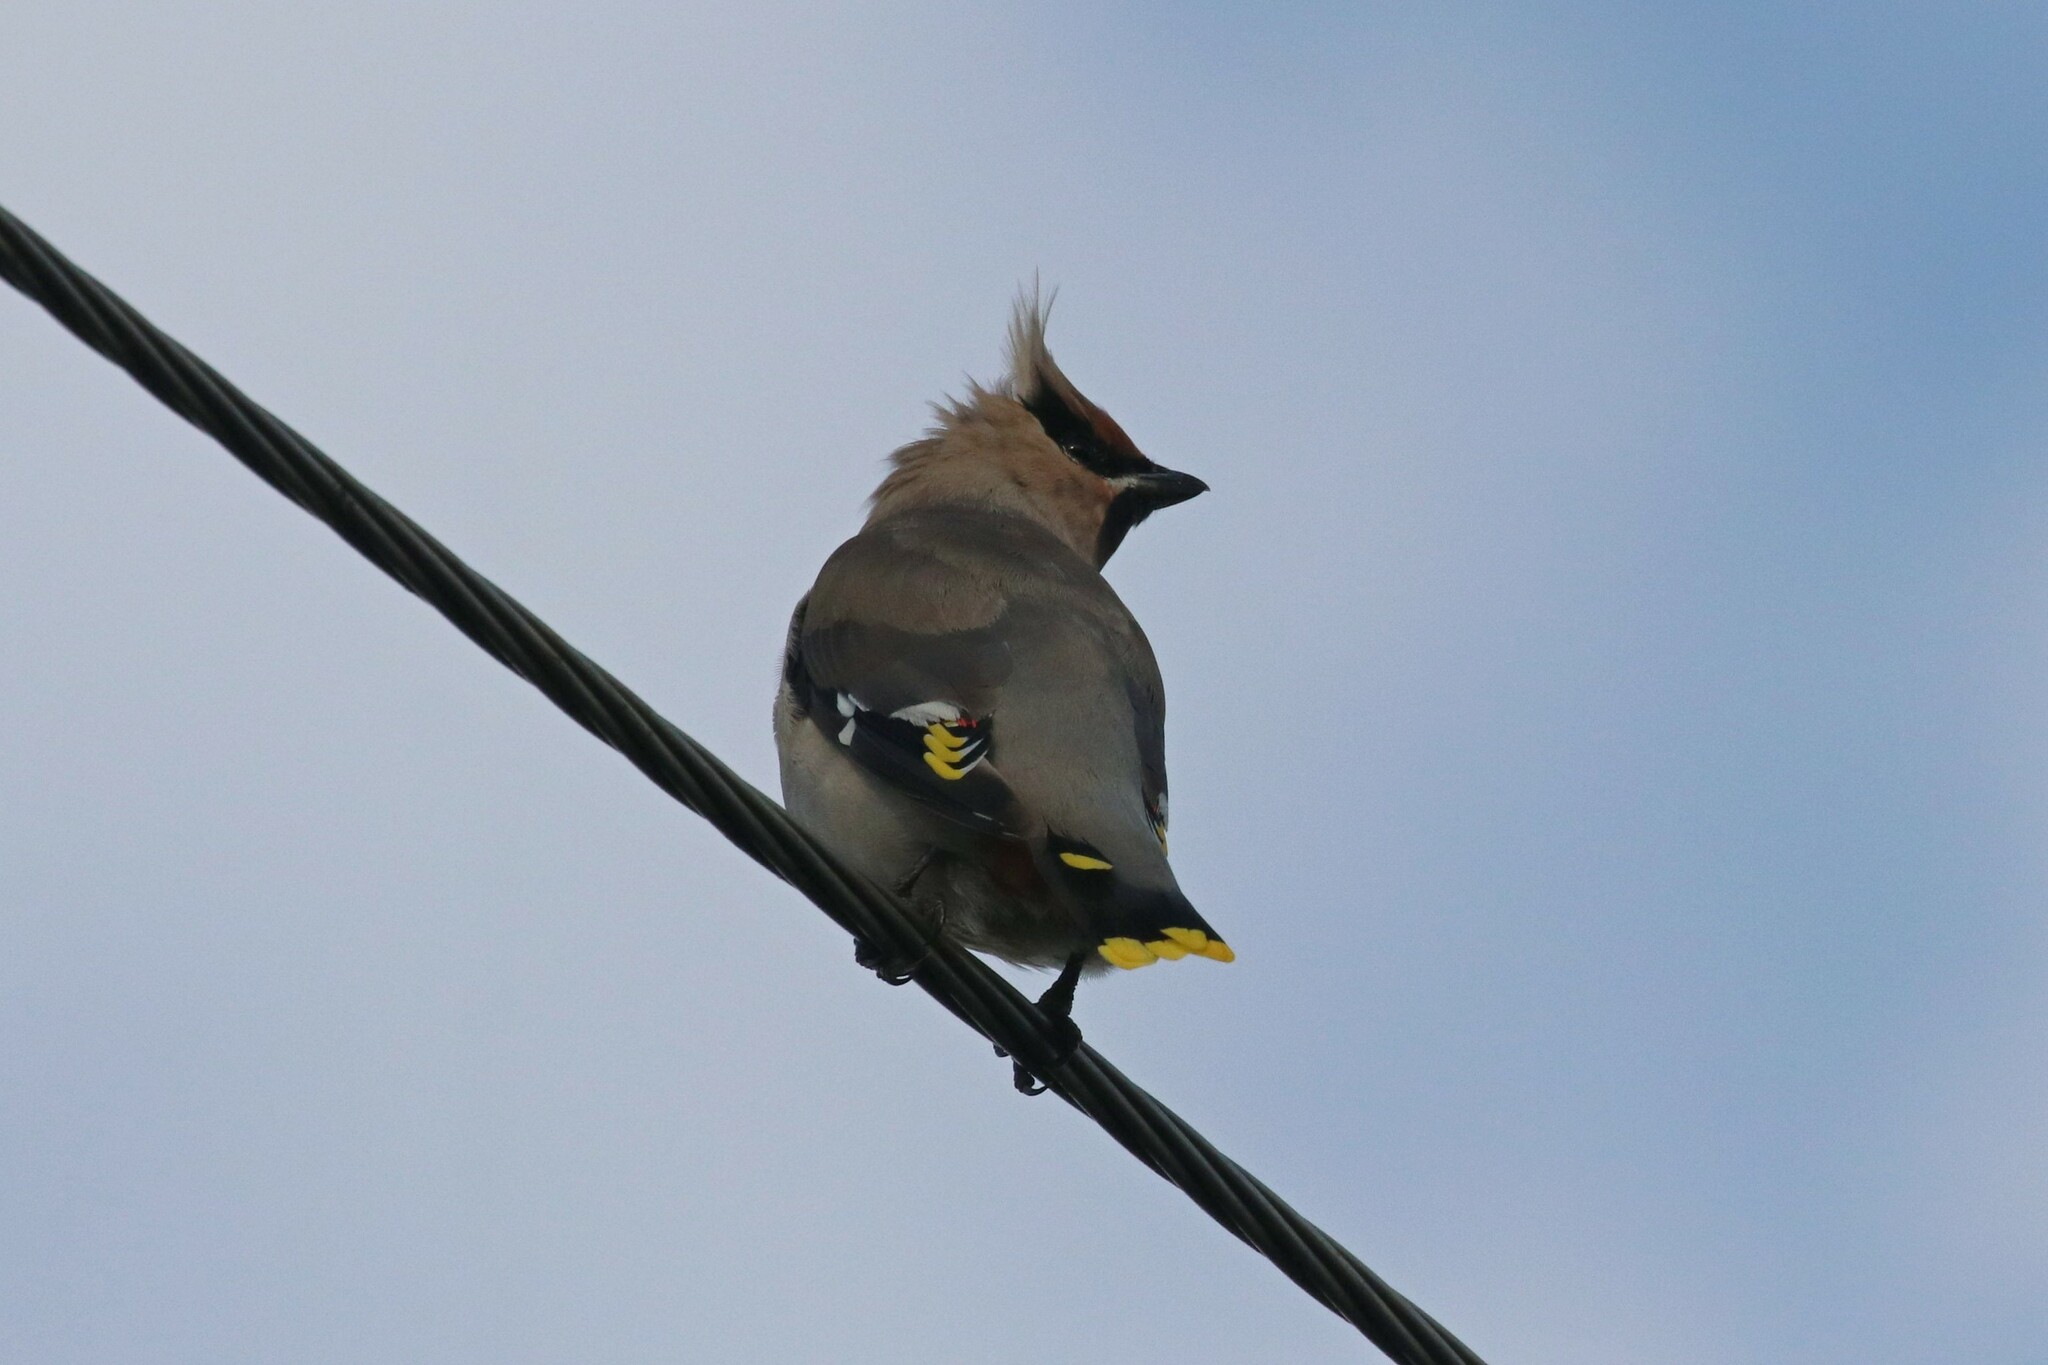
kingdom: Animalia
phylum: Chordata
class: Aves
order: Passeriformes
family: Bombycillidae
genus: Bombycilla
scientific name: Bombycilla garrulus
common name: Bohemian waxwing
